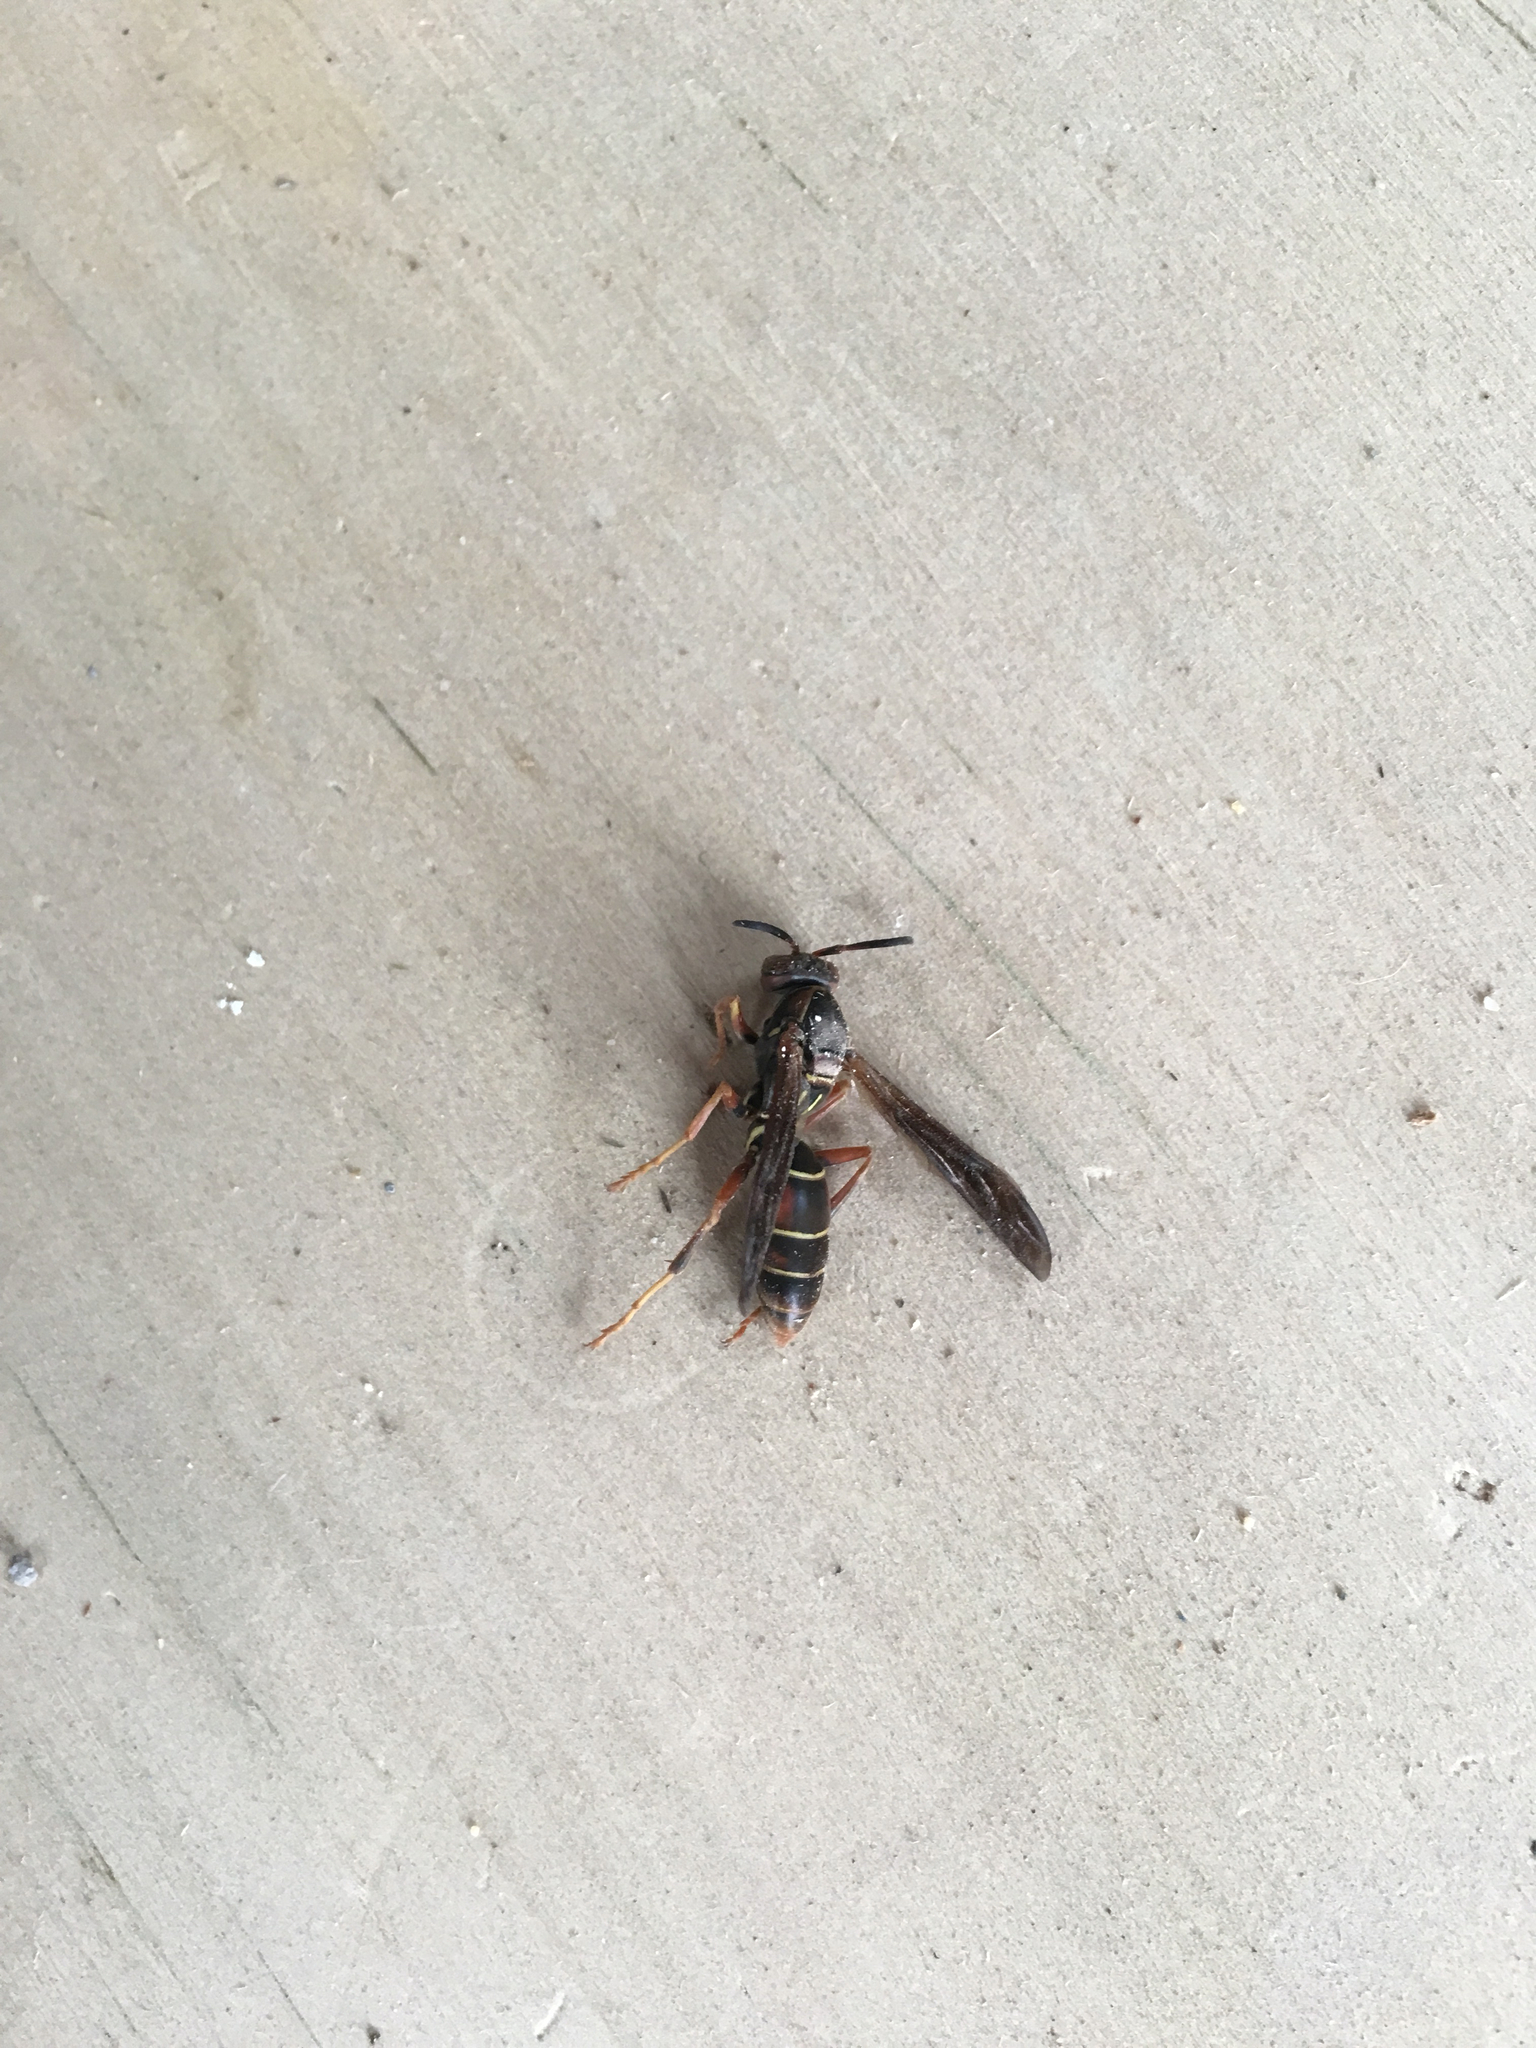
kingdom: Animalia
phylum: Arthropoda
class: Insecta
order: Hymenoptera
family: Eumenidae
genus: Polistes
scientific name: Polistes fuscatus
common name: Dark paper wasp
